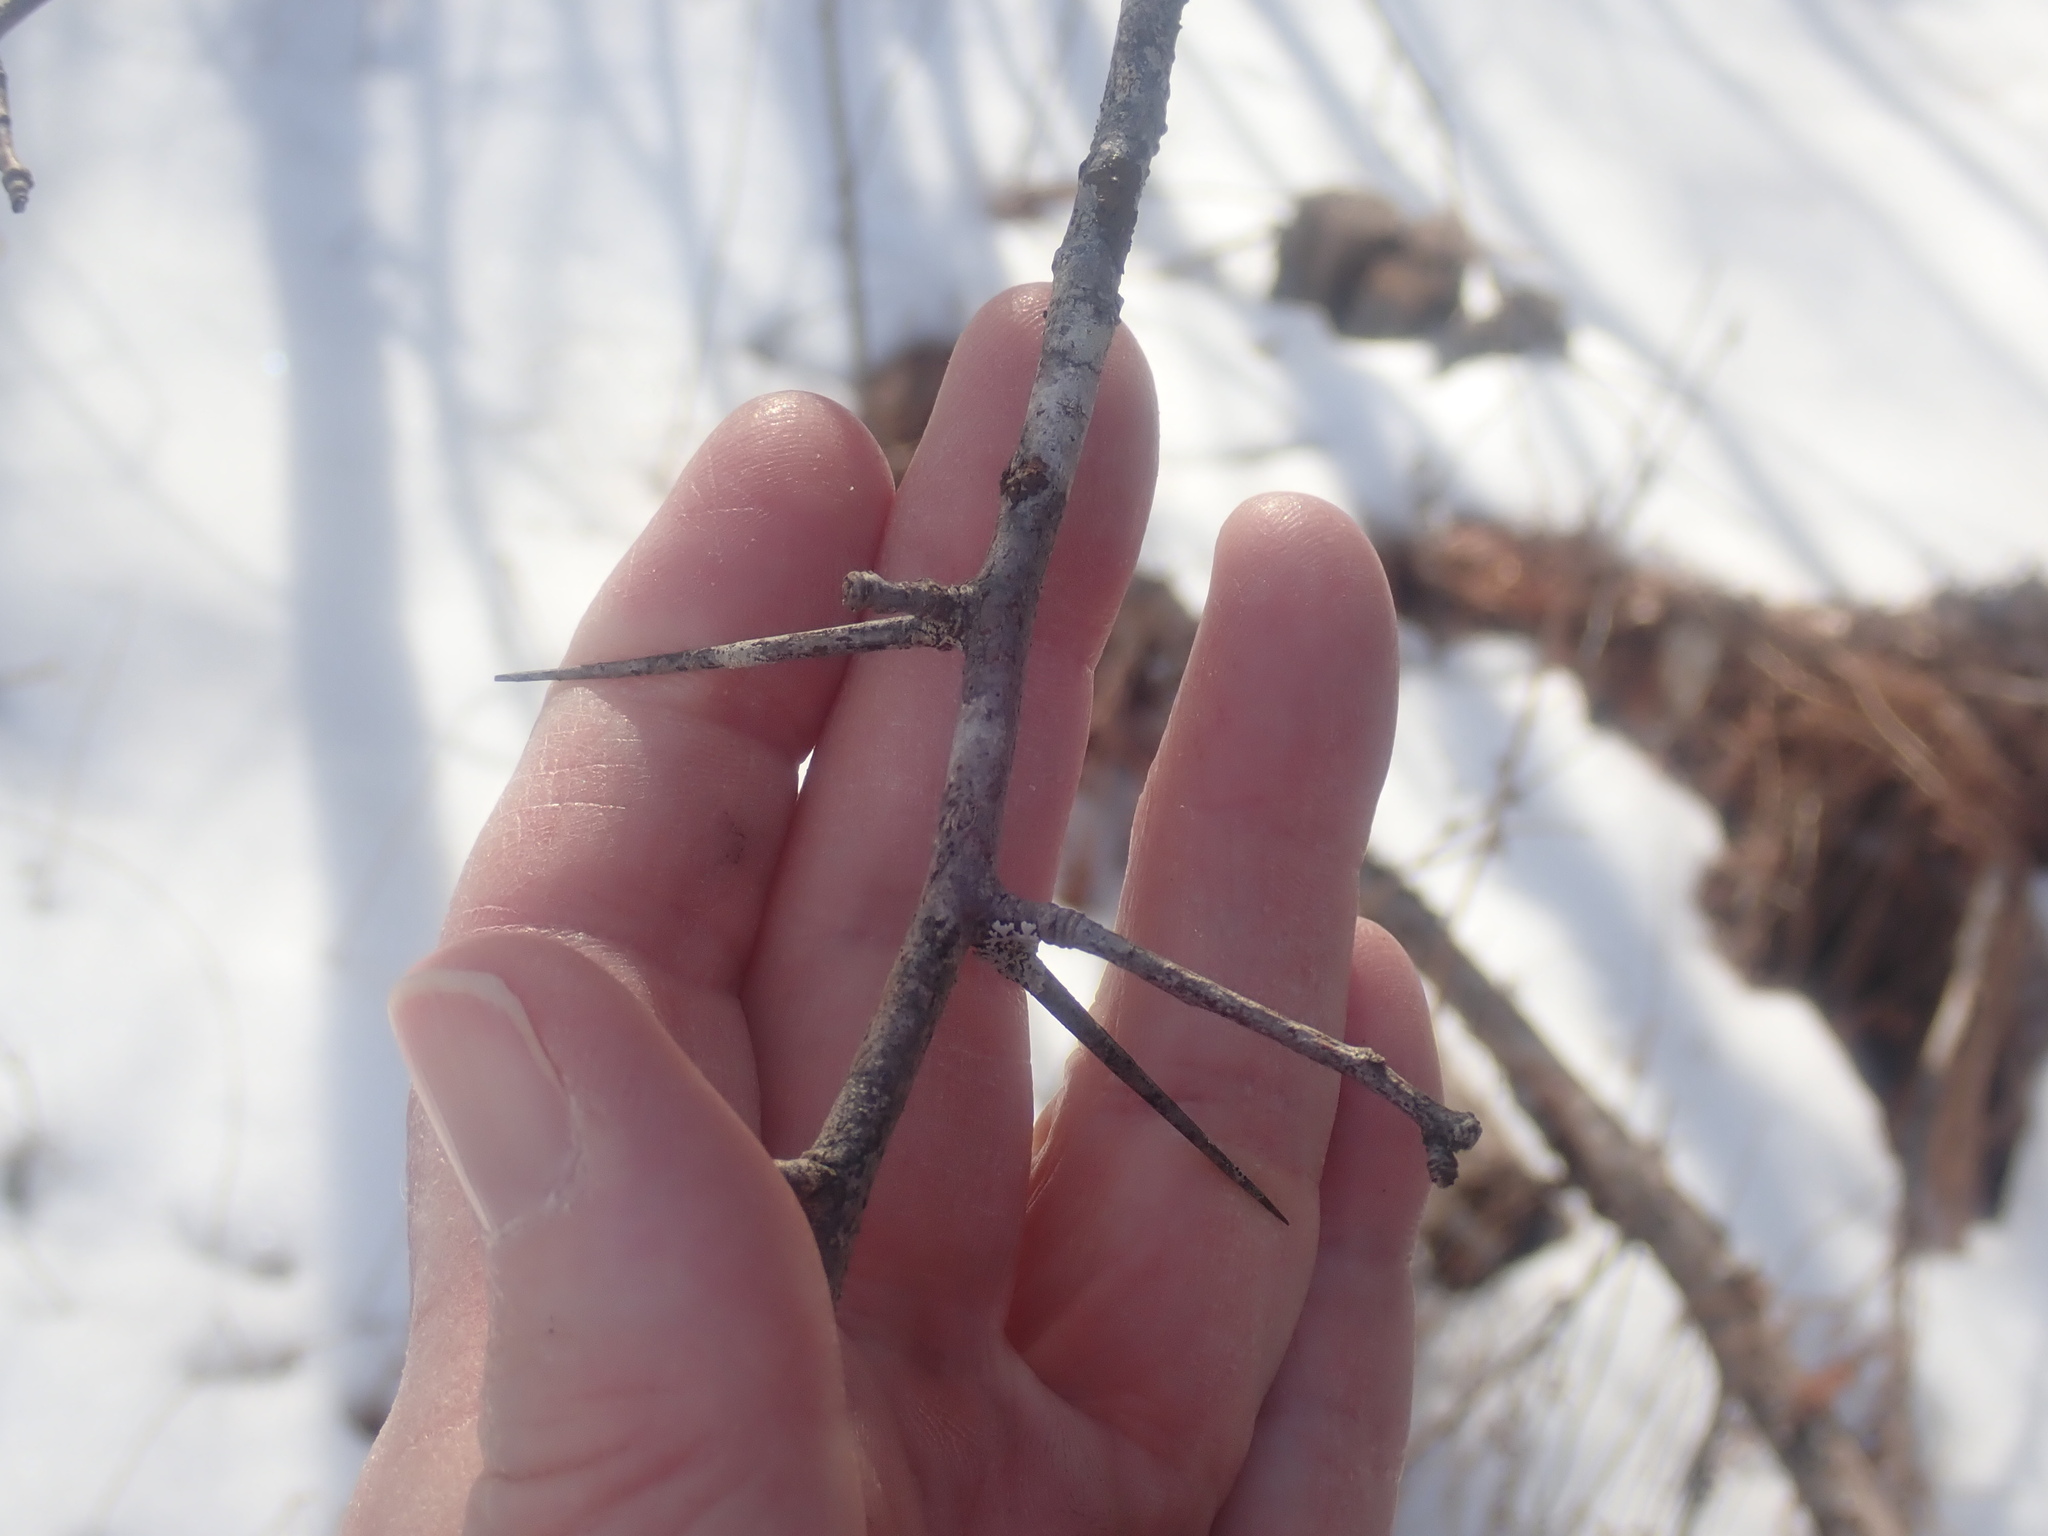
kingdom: Plantae
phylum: Tracheophyta
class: Magnoliopsida
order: Rosales
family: Rosaceae
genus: Crataegus
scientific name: Crataegus
